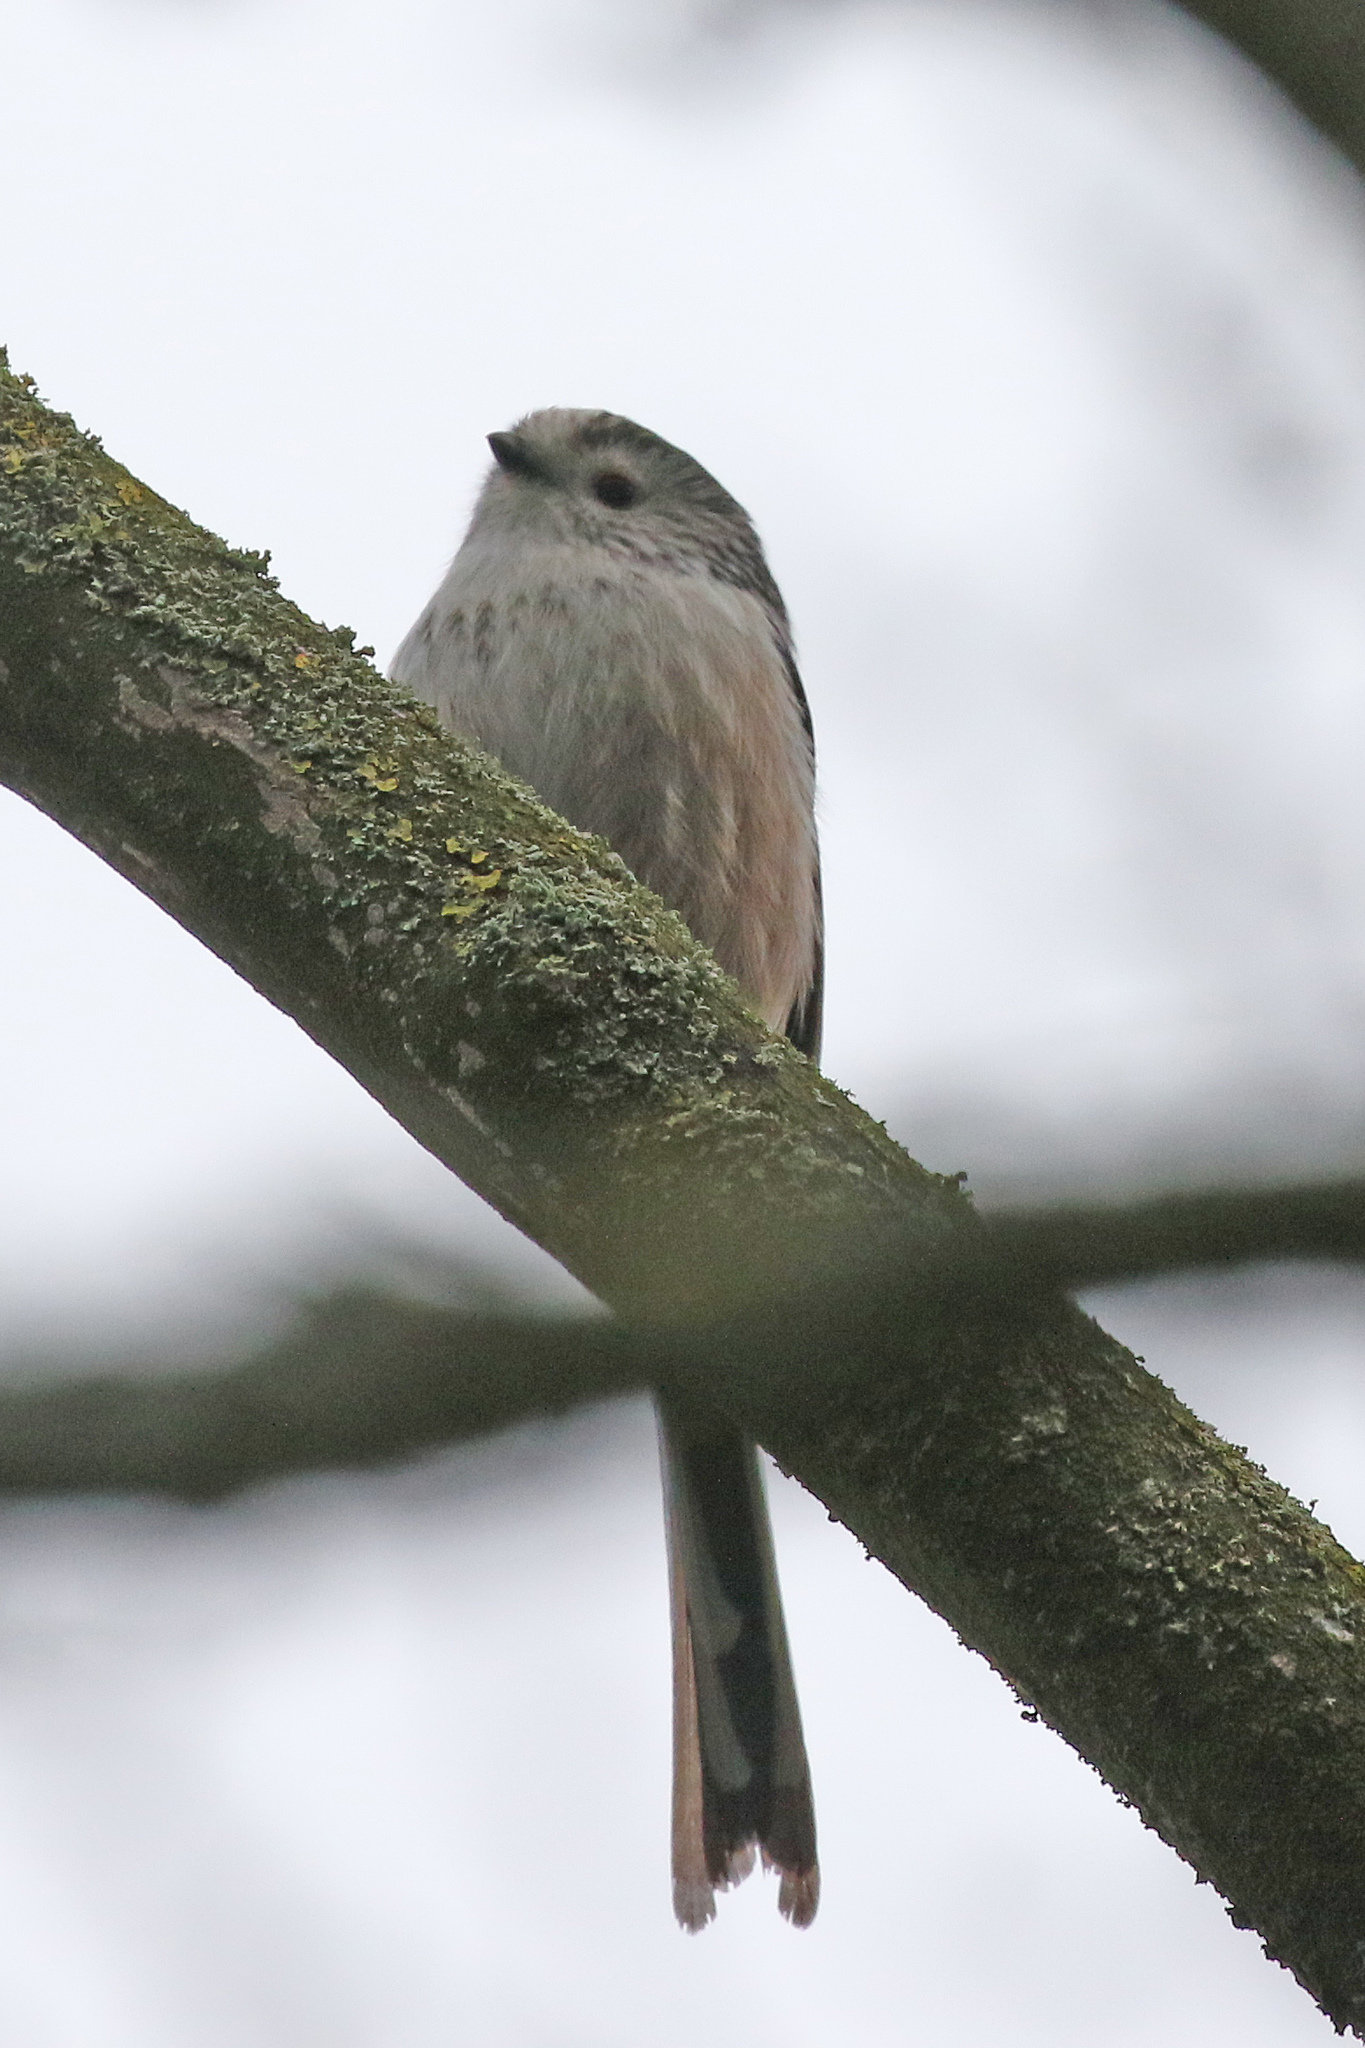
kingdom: Animalia
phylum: Chordata
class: Aves
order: Passeriformes
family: Aegithalidae
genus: Aegithalos
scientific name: Aegithalos caudatus
